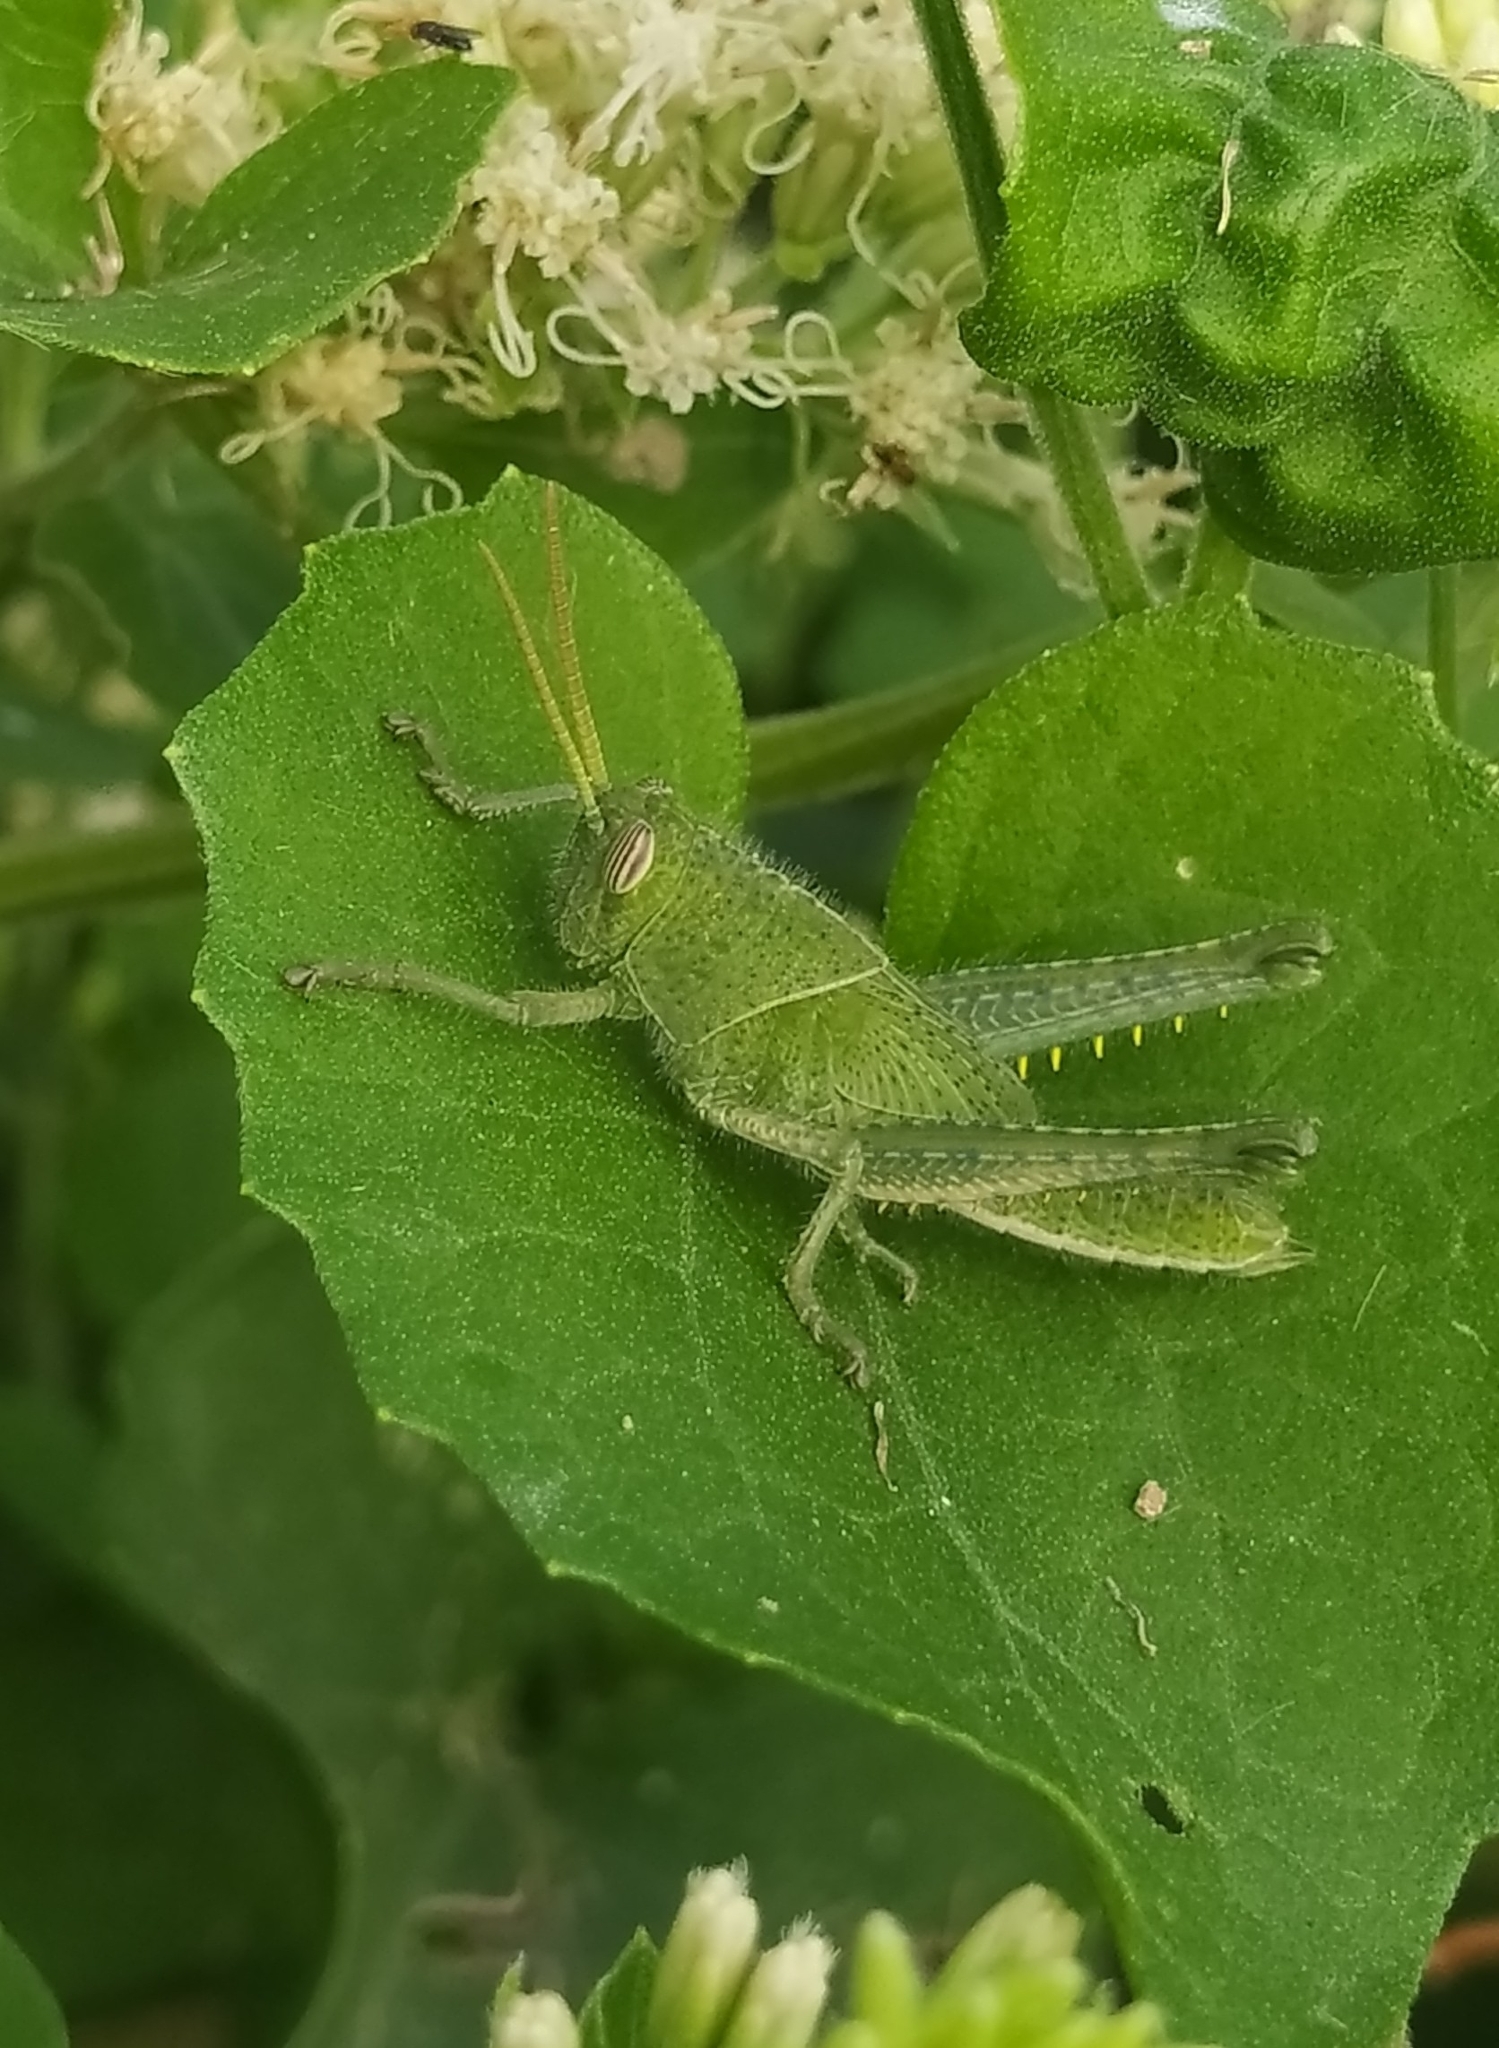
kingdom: Animalia
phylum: Arthropoda
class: Insecta
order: Orthoptera
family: Acrididae
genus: Schistocerca
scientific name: Schistocerca flavofasciata
